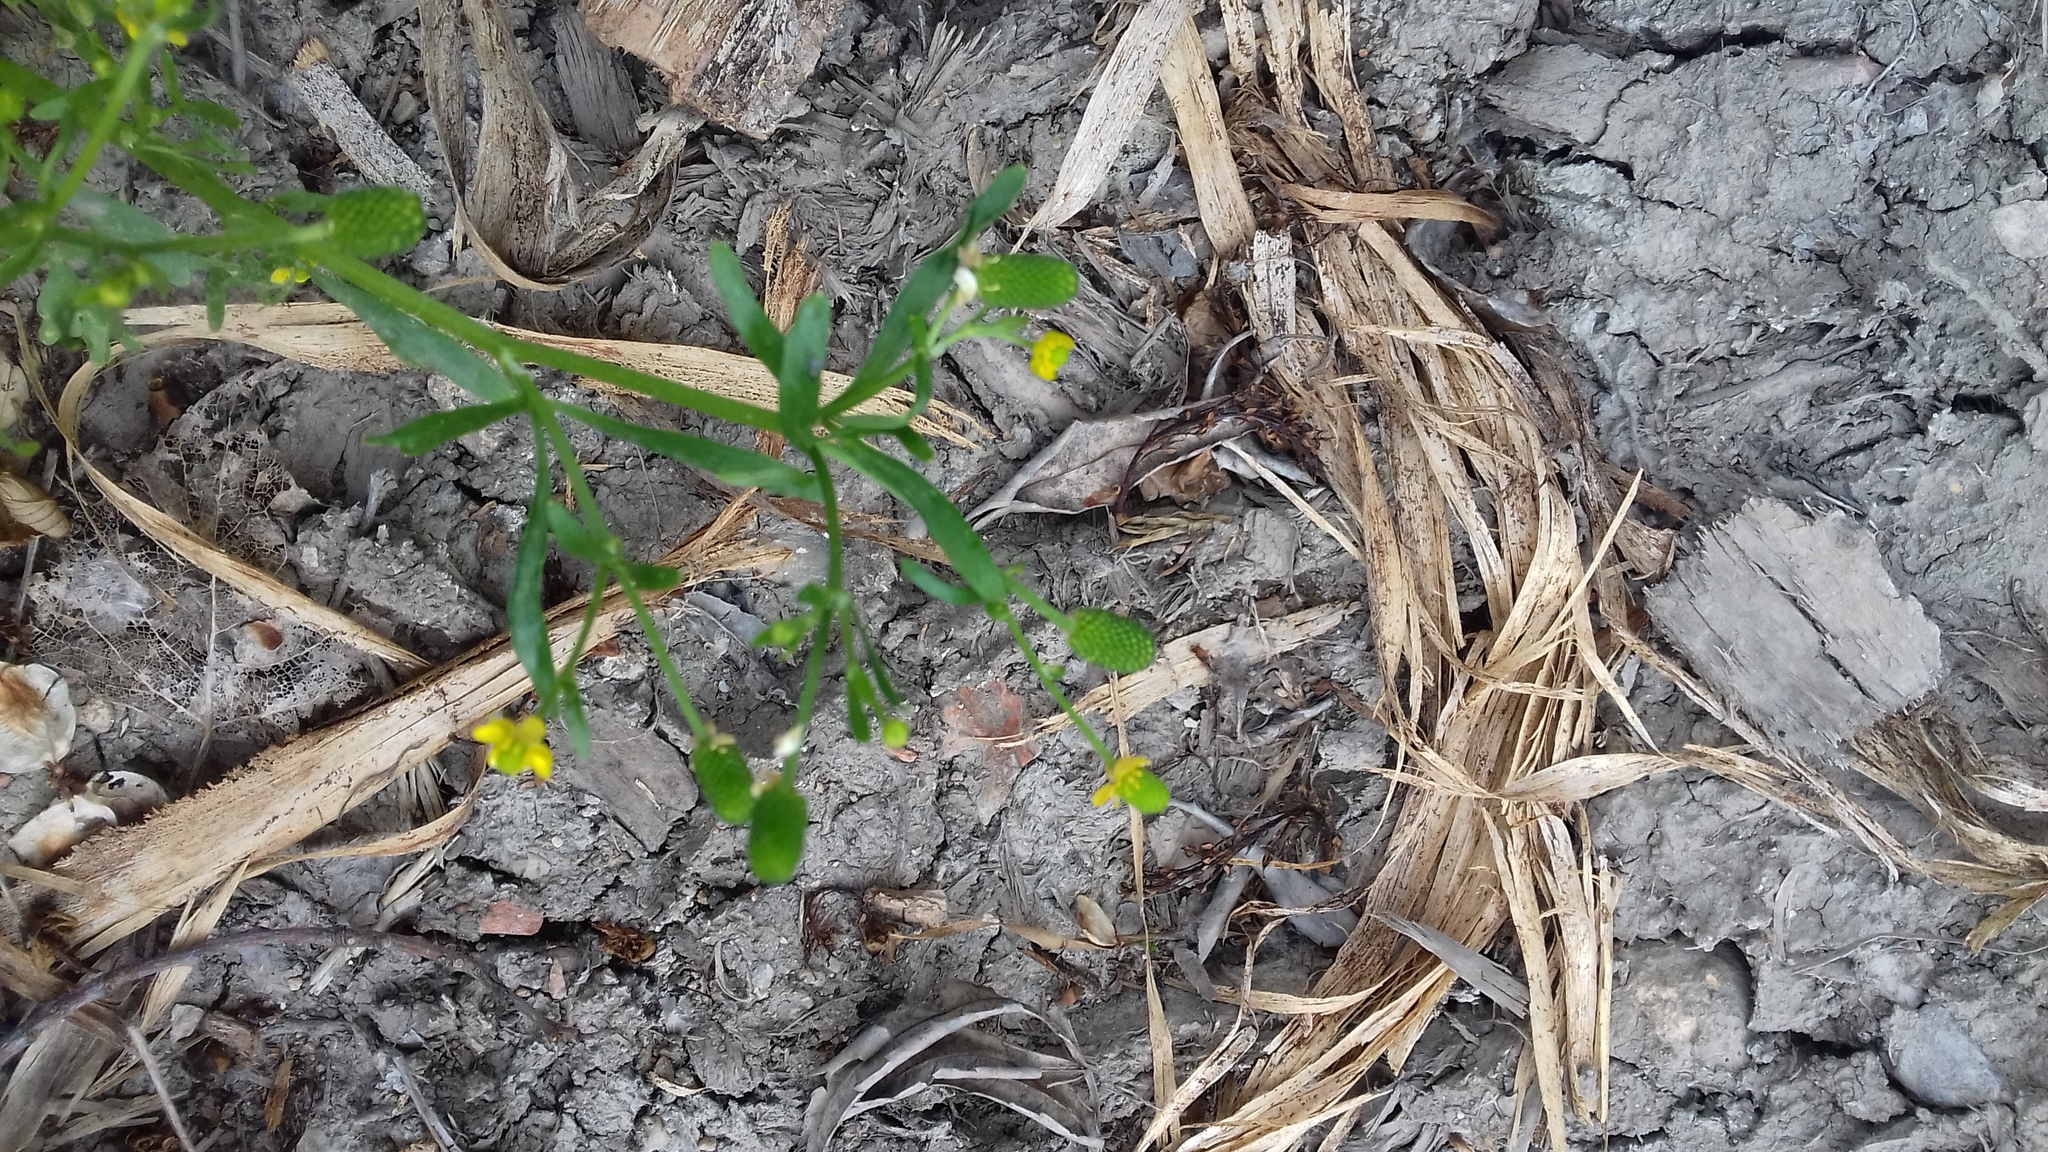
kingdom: Plantae
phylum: Tracheophyta
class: Magnoliopsida
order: Ranunculales
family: Ranunculaceae
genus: Ranunculus
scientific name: Ranunculus sceleratus
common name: Celery-leaved buttercup
